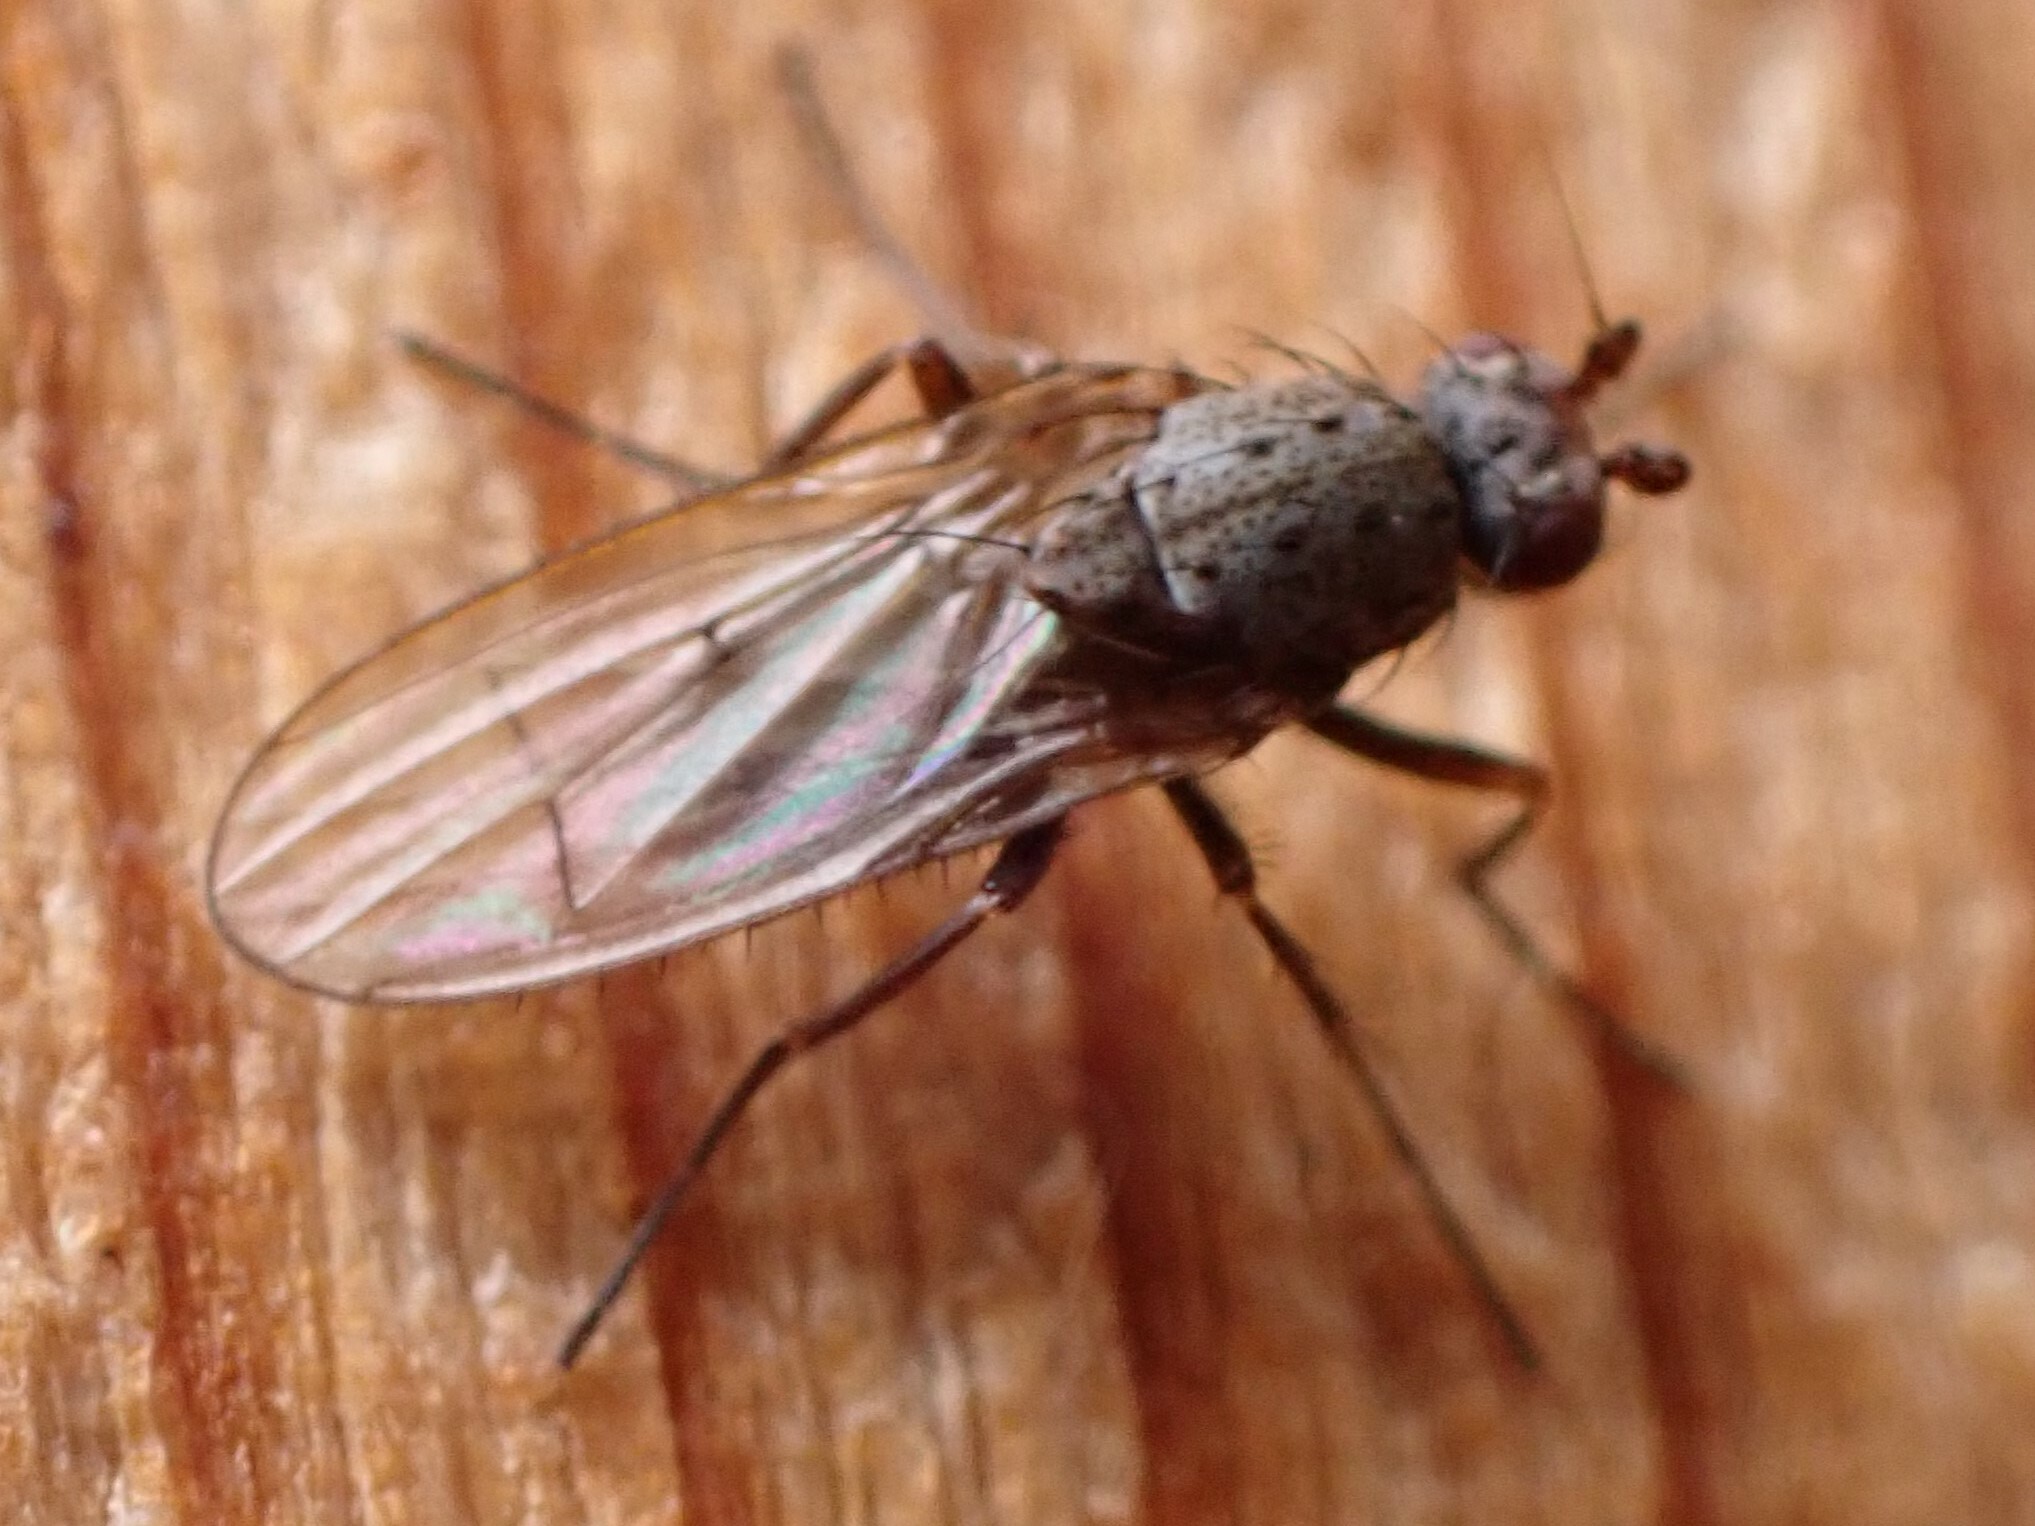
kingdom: Animalia
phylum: Arthropoda
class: Insecta
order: Diptera
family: Heleomyzidae
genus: Oecothea
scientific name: Oecothea
